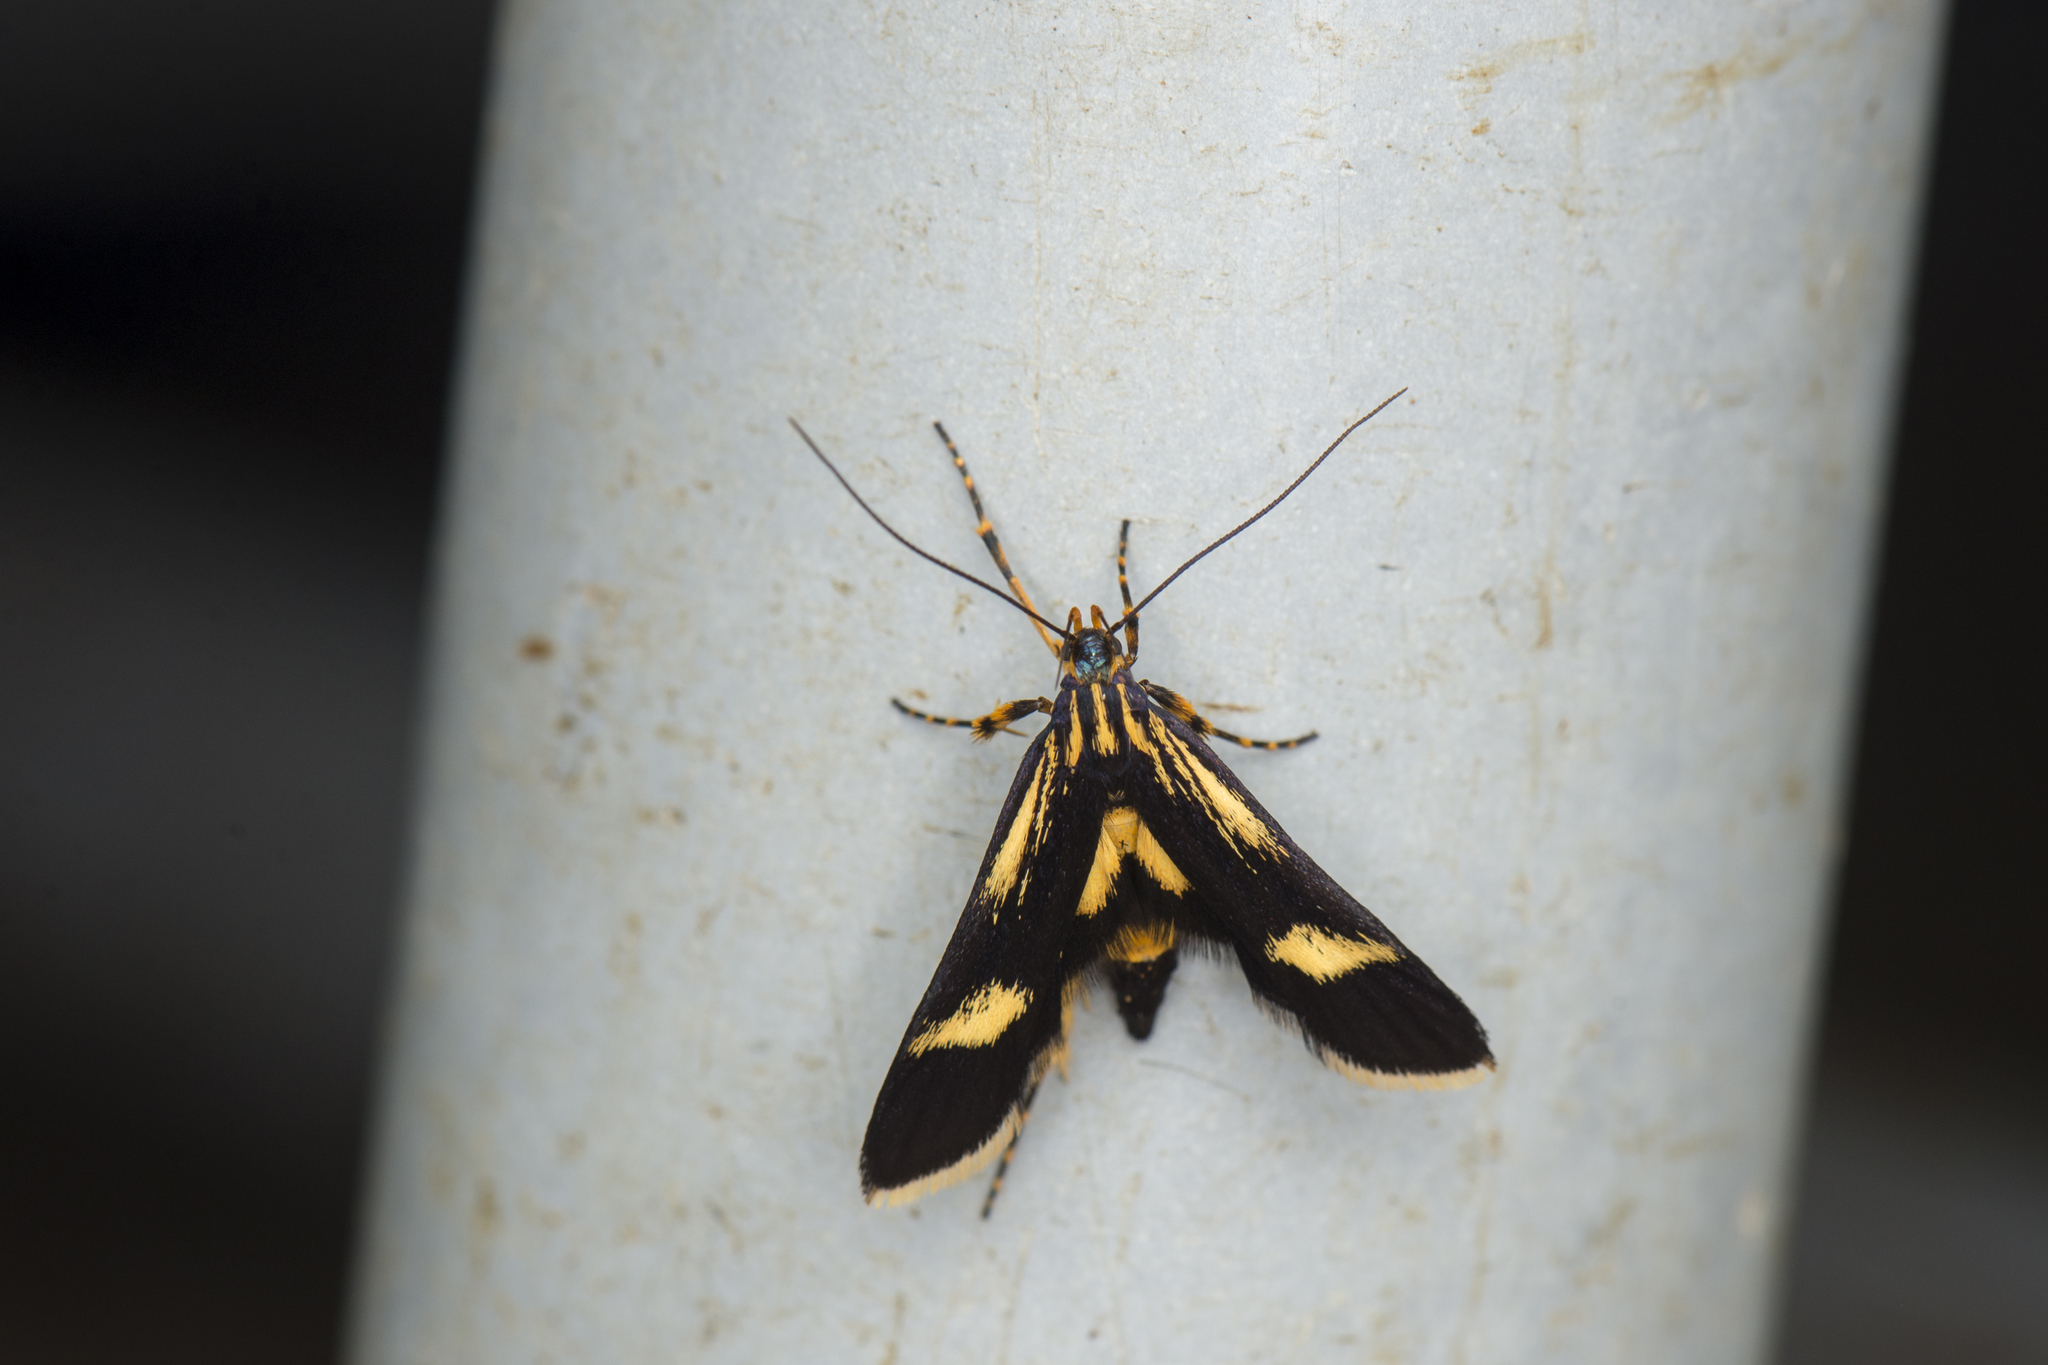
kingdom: Animalia
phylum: Arthropoda
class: Insecta
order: Lepidoptera
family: Gelechiidae
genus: Lysipatha
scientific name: Lysipatha diaxantha
